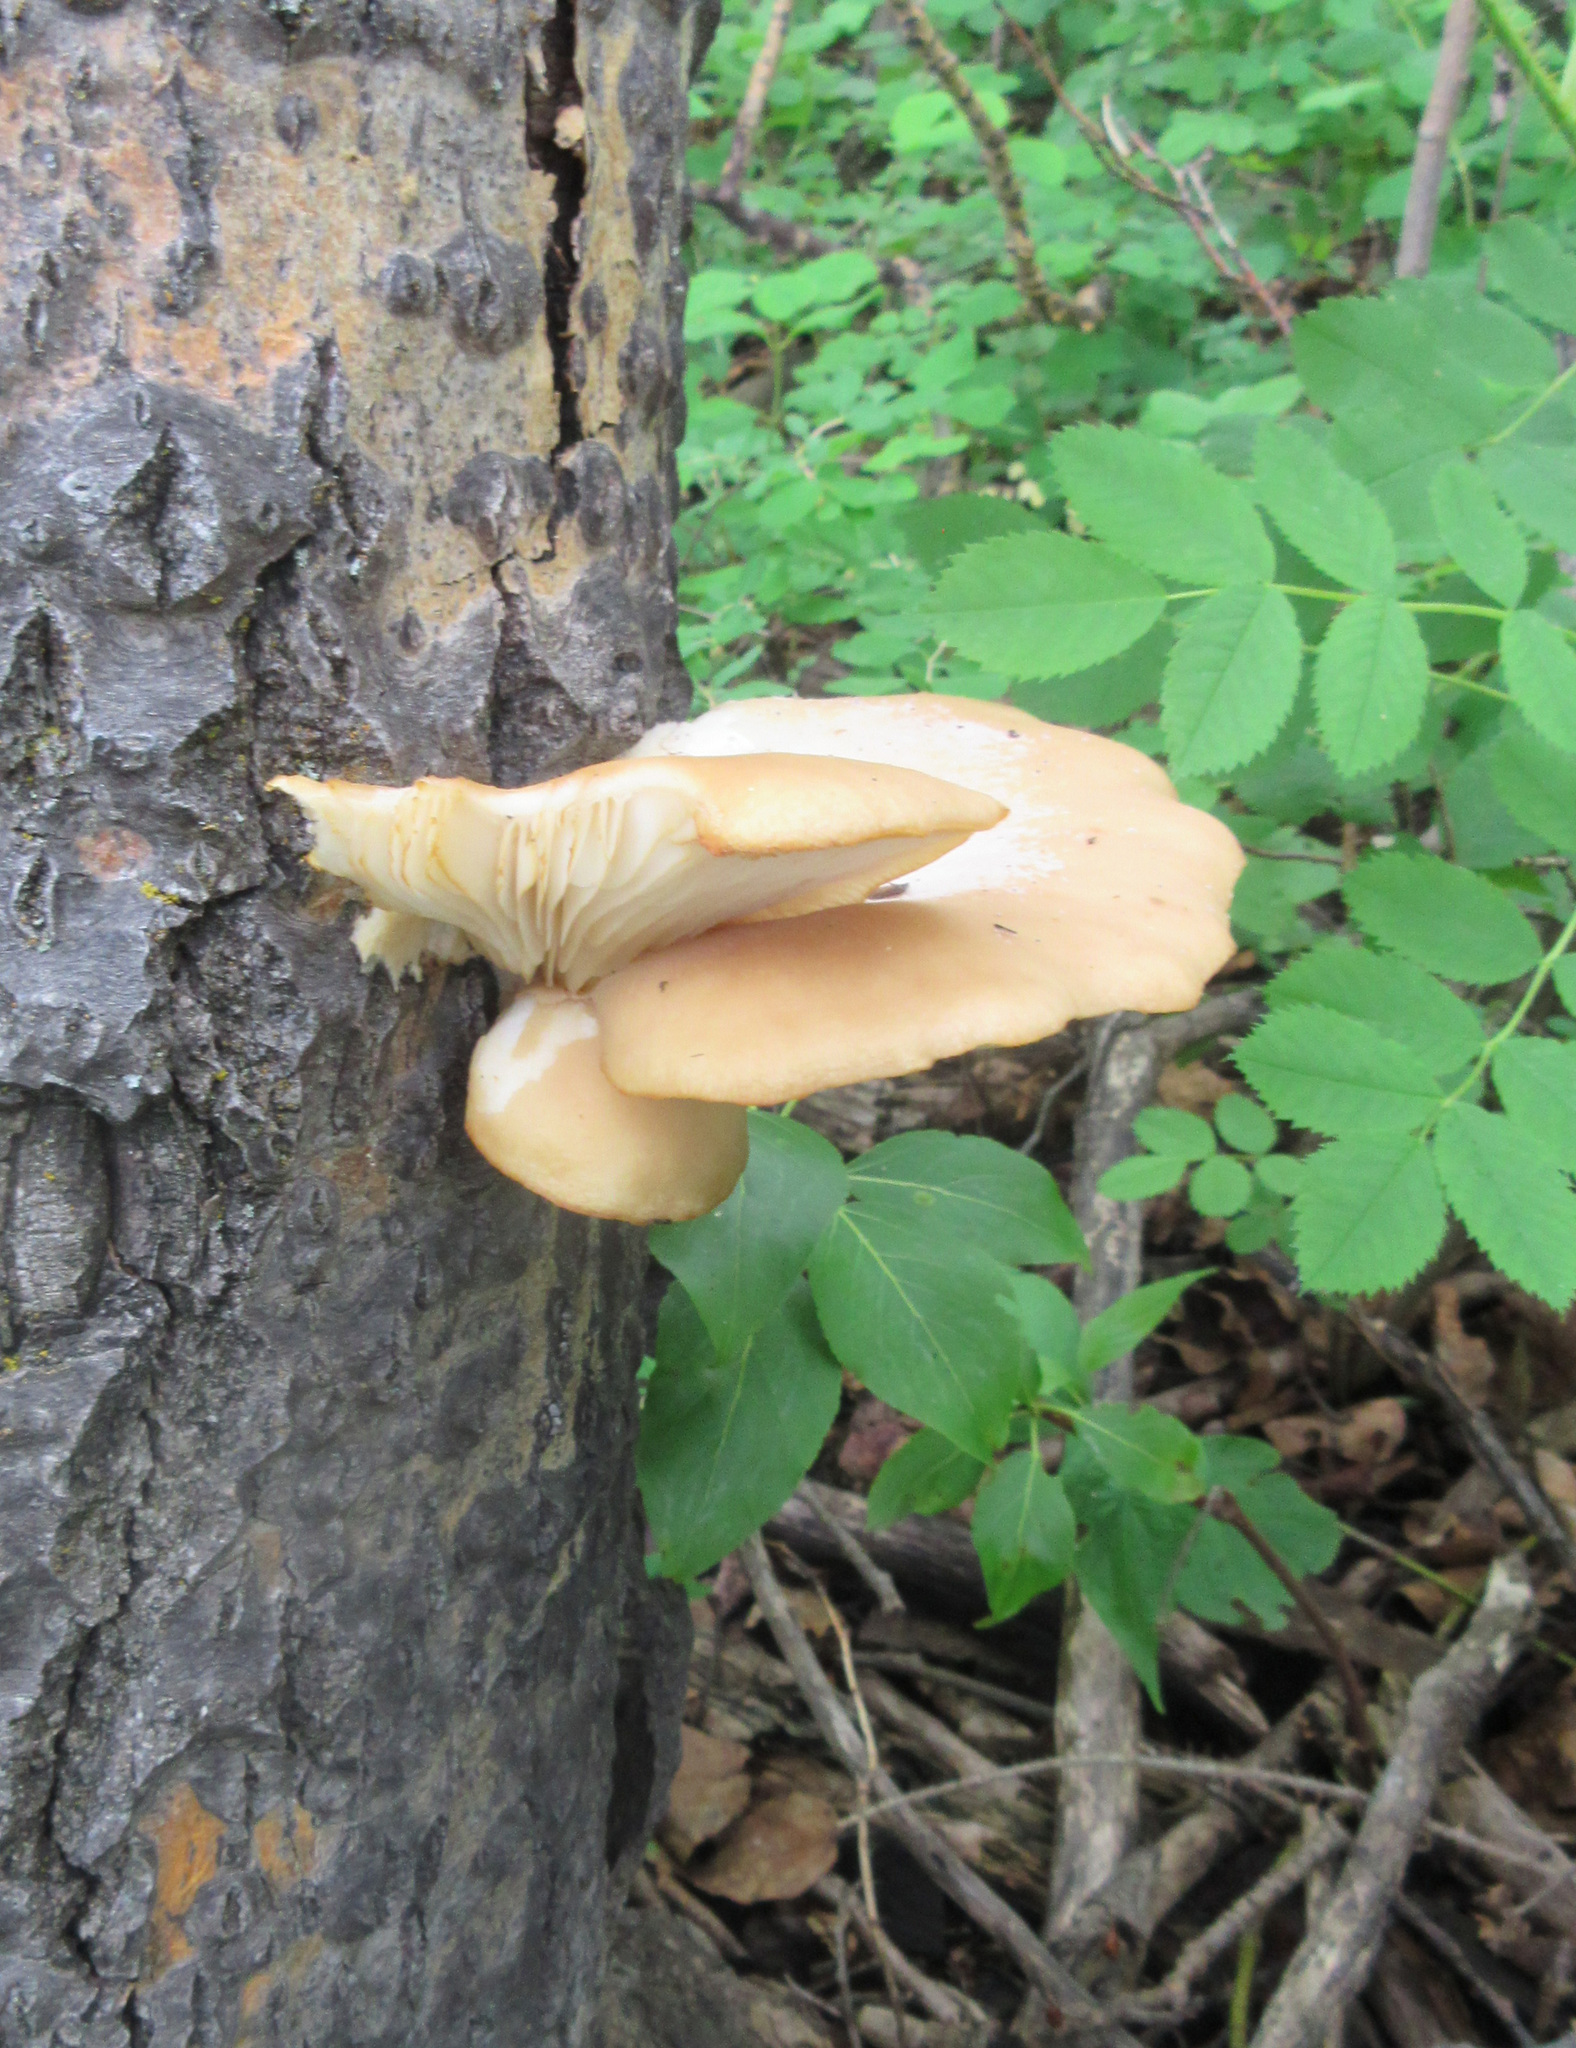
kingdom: Fungi
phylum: Basidiomycota
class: Agaricomycetes
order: Agaricales
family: Pleurotaceae
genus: Pleurotus
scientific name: Pleurotus populinus
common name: Aspen oyster mushroom
